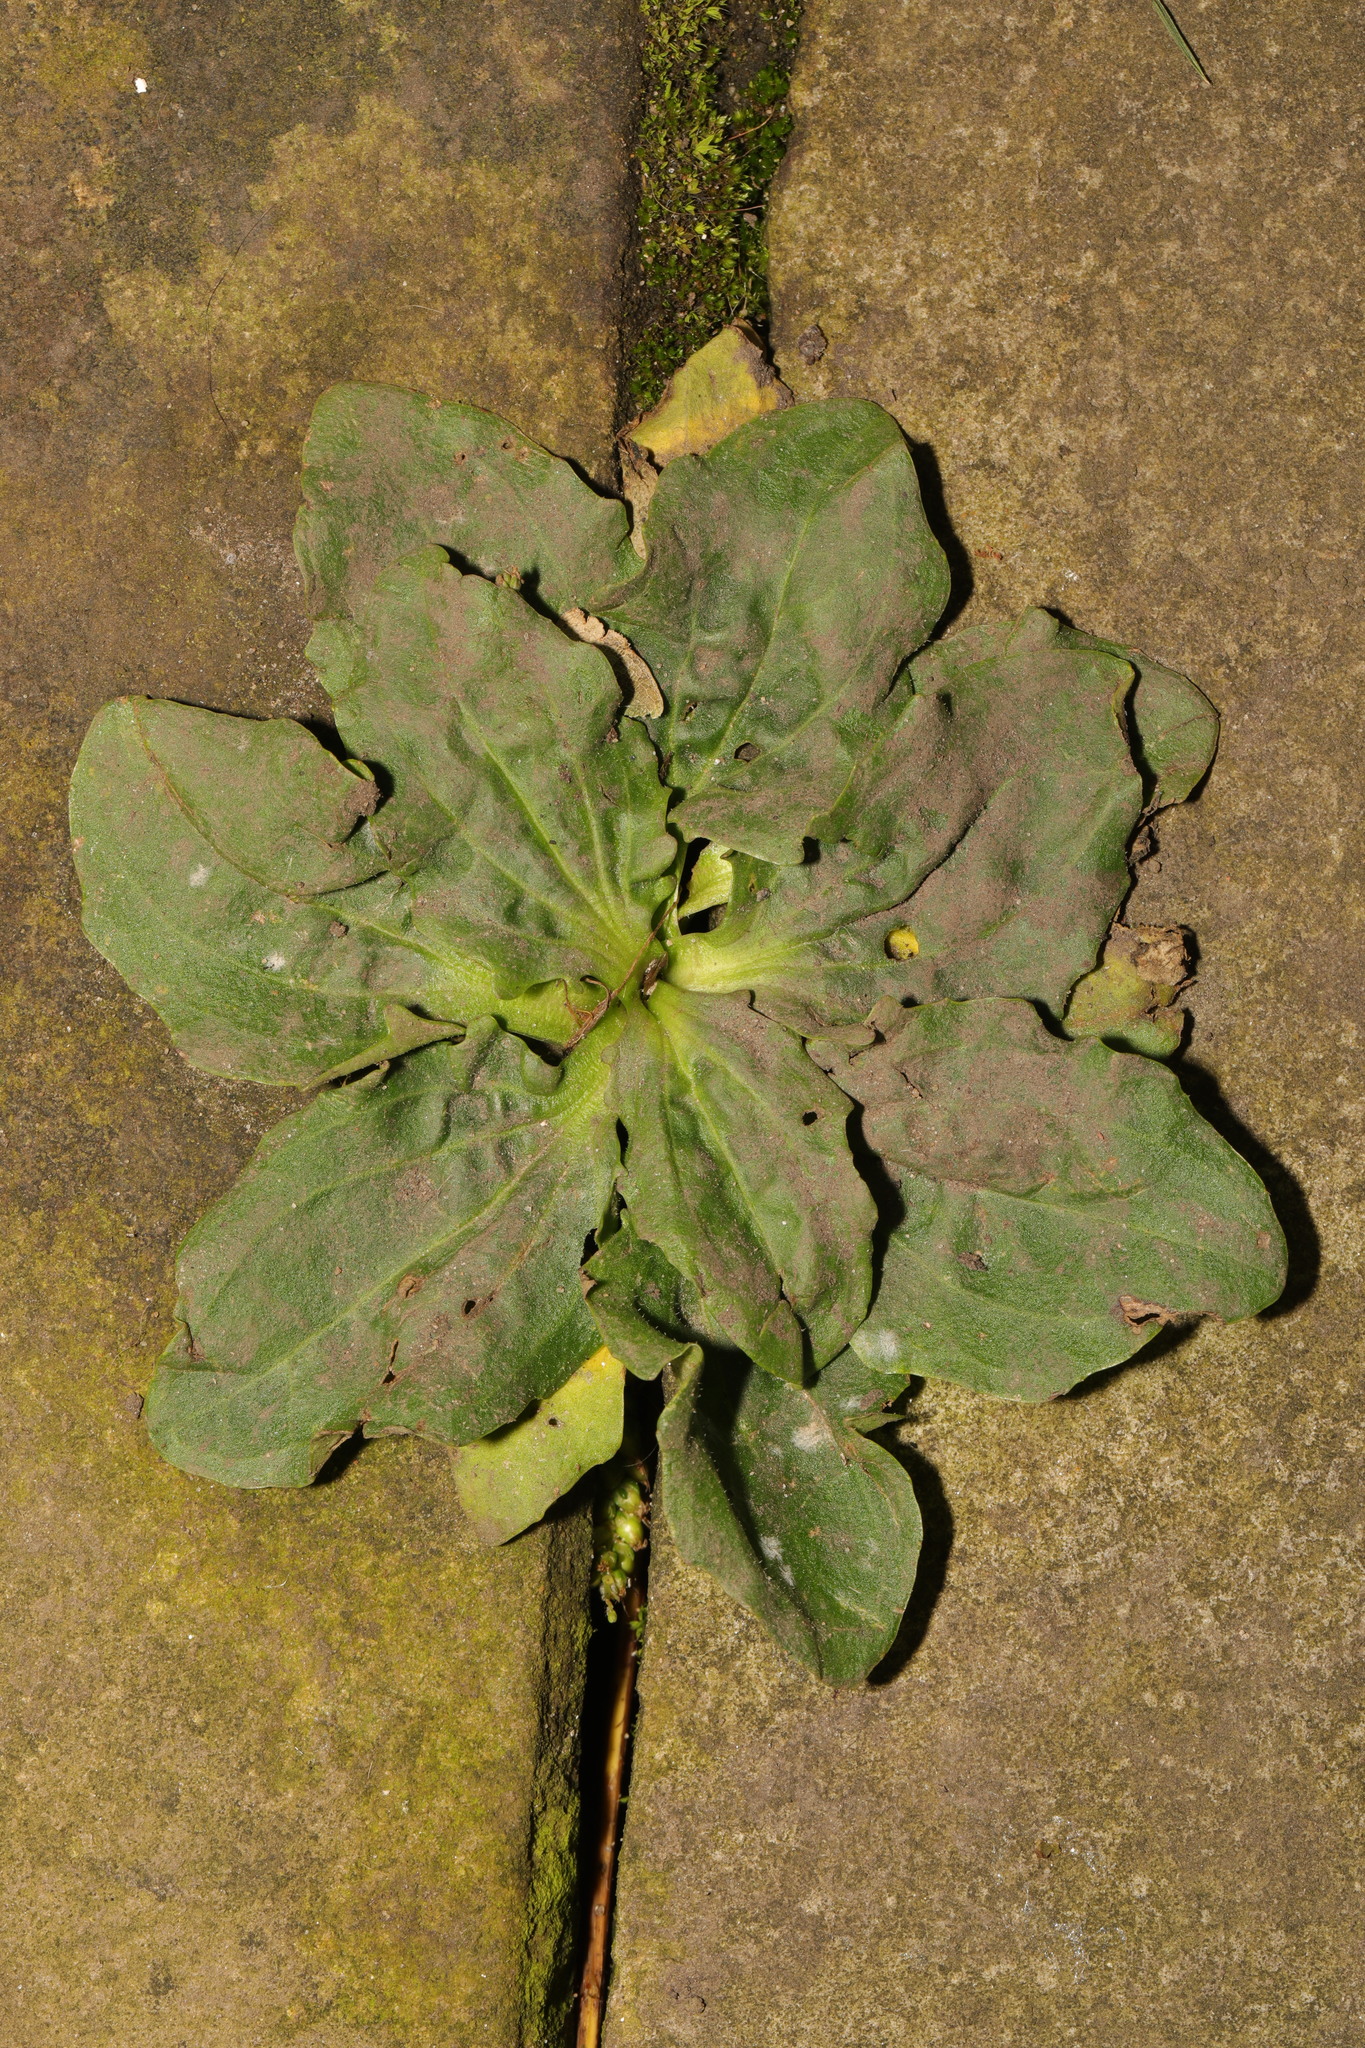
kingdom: Plantae
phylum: Tracheophyta
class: Magnoliopsida
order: Lamiales
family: Plantaginaceae
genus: Plantago
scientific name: Plantago major
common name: Common plantain
